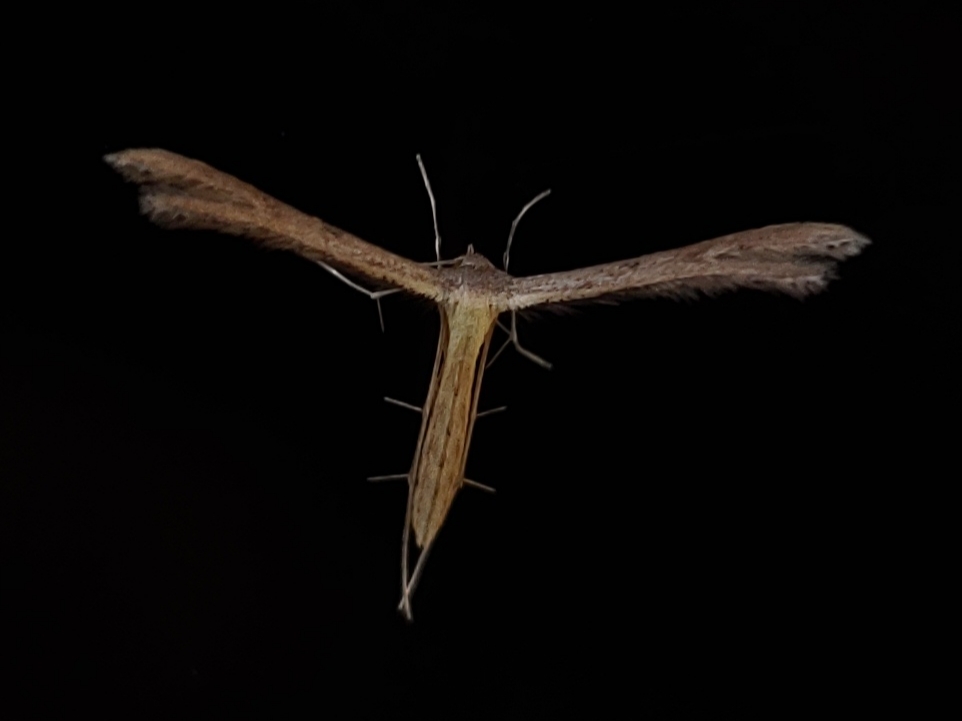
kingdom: Animalia
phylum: Arthropoda
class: Insecta
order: Lepidoptera
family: Pterophoridae
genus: Exelastis
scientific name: Exelastis pumilio
